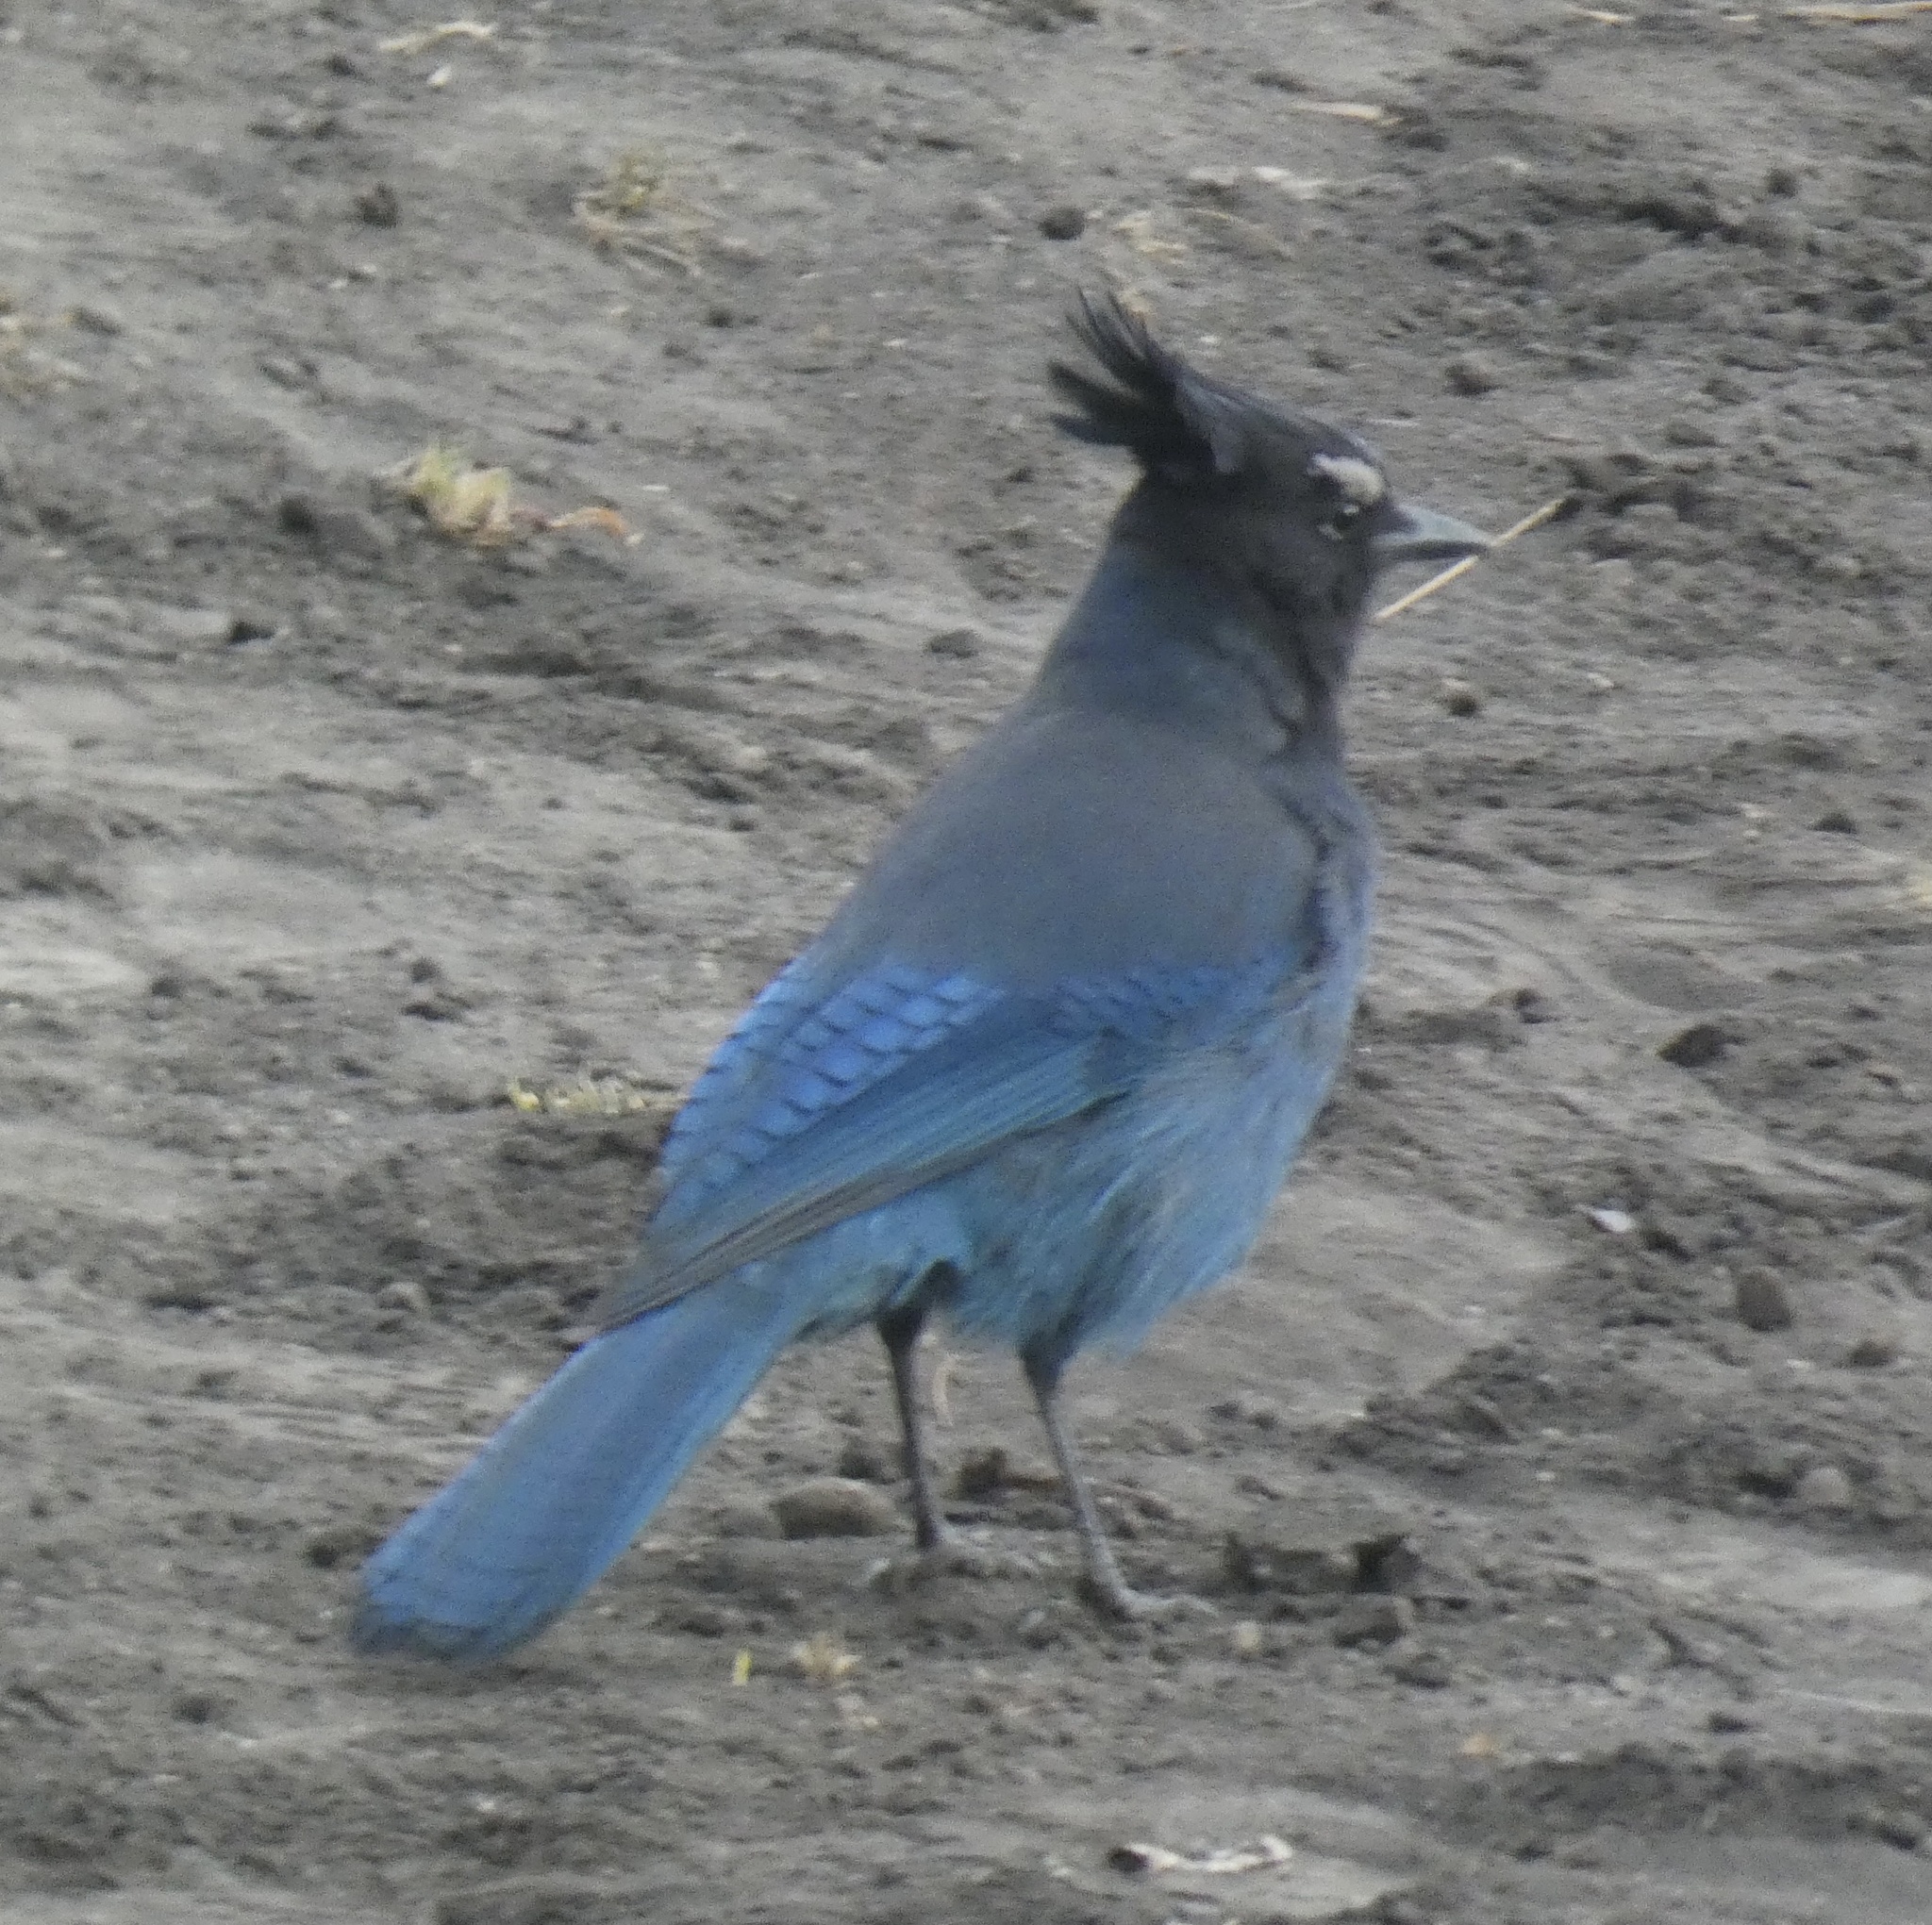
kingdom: Animalia
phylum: Chordata
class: Aves
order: Passeriformes
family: Corvidae
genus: Cyanocitta
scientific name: Cyanocitta stelleri
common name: Steller's jay
